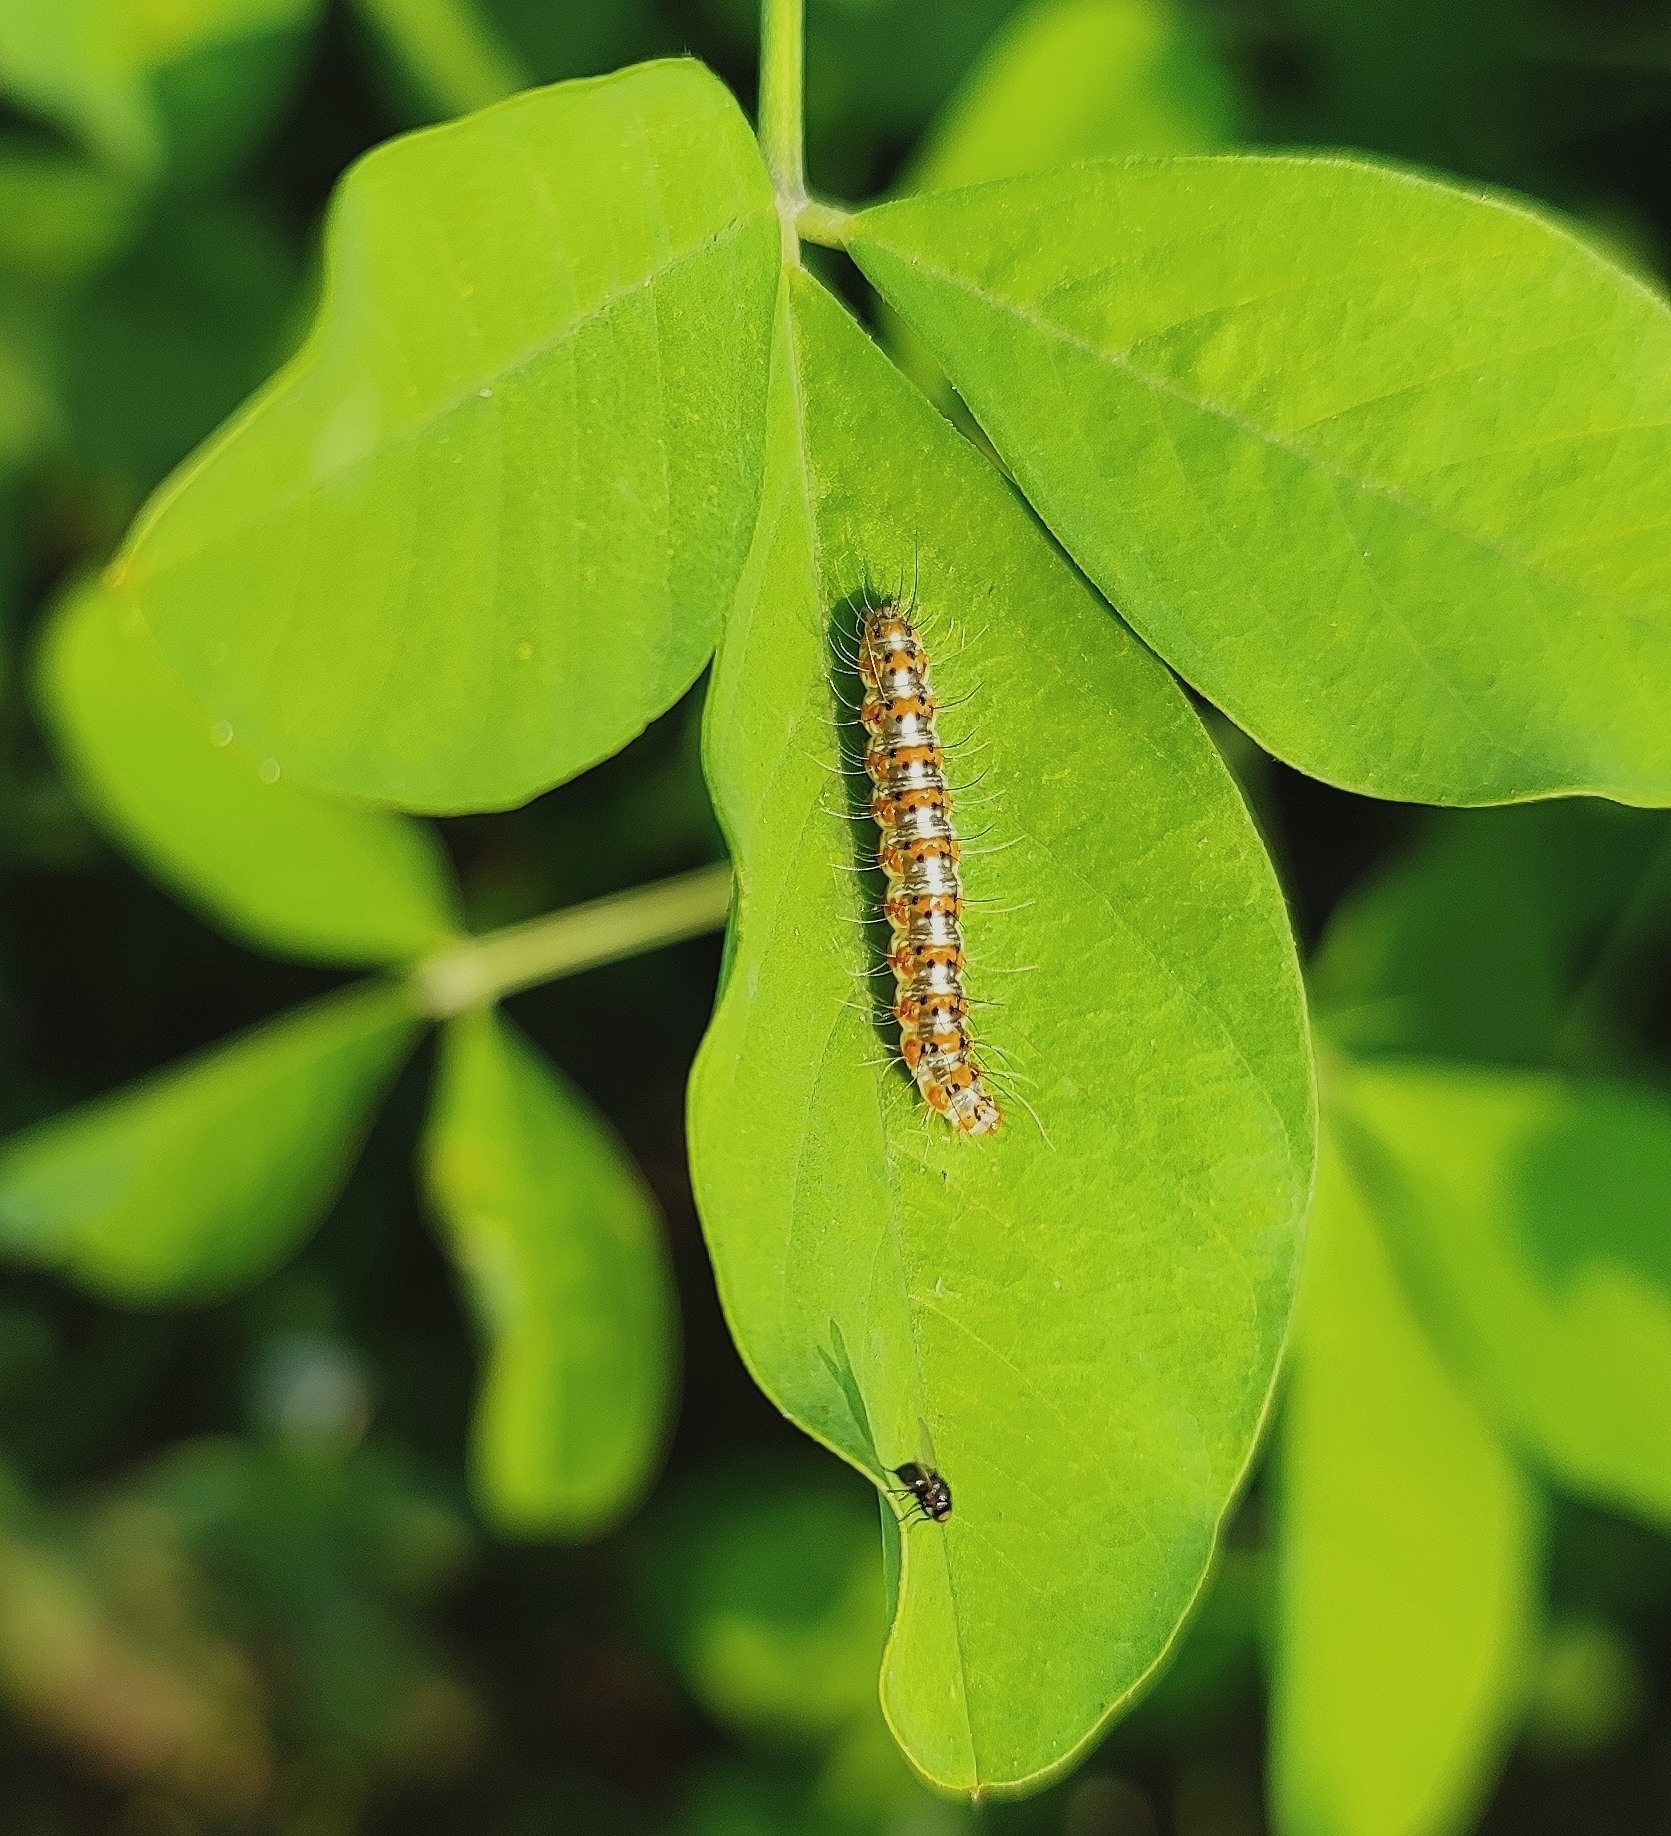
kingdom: Animalia
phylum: Arthropoda
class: Insecta
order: Lepidoptera
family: Erebidae
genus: Utetheisa
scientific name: Utetheisa pulchelloides
